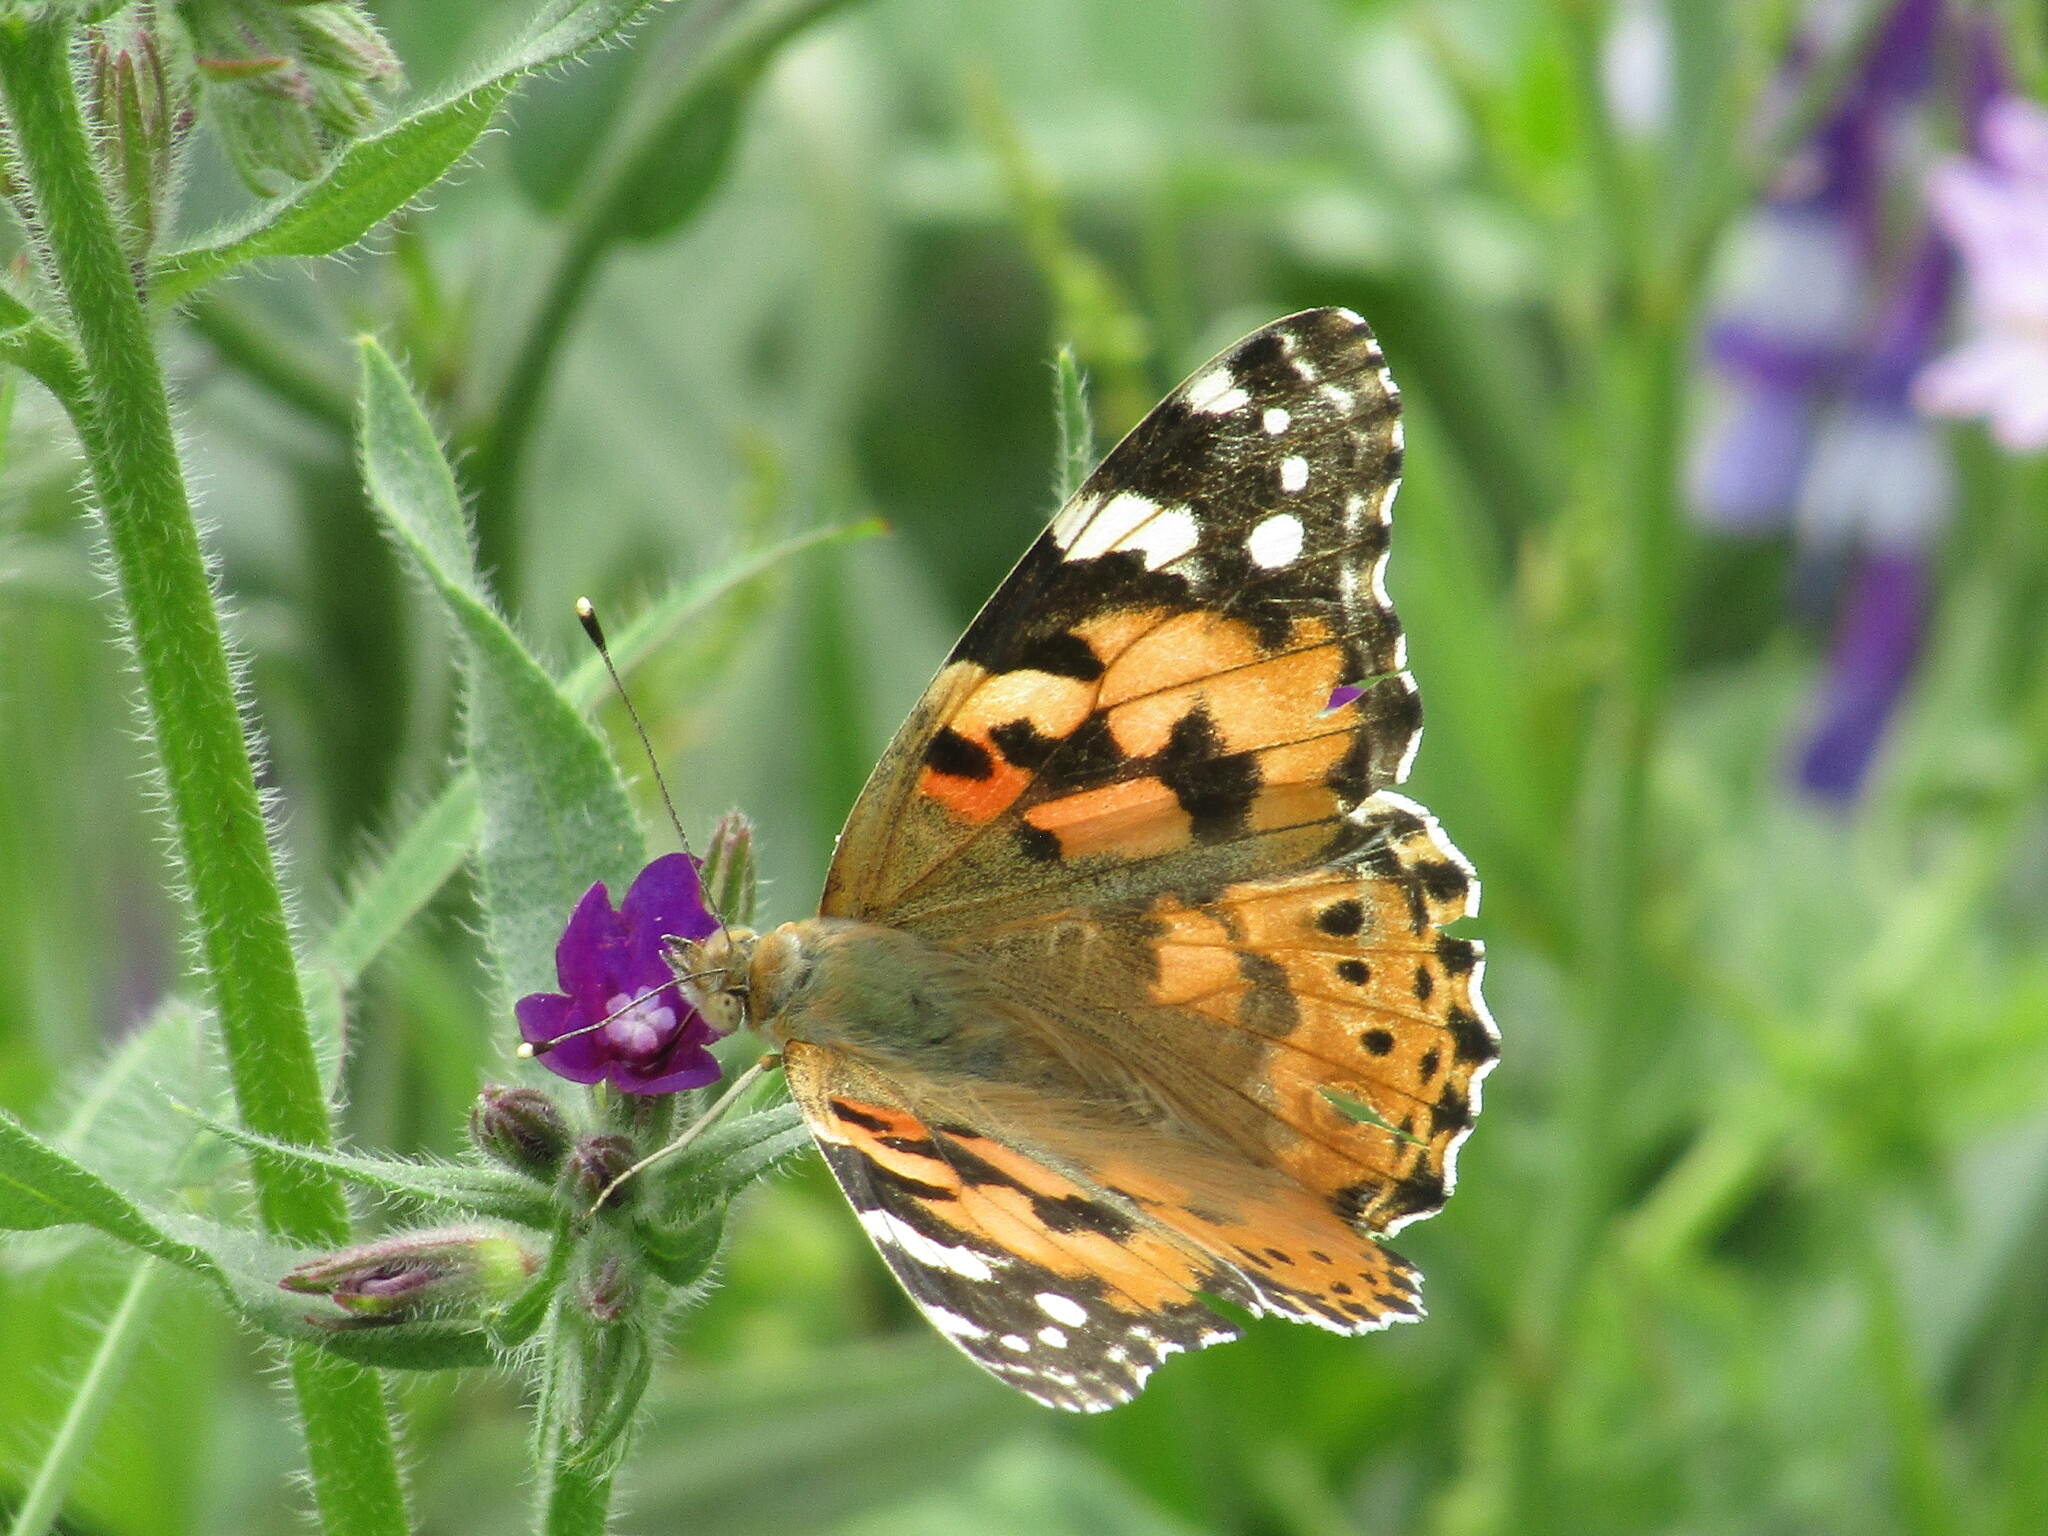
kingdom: Animalia
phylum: Arthropoda
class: Insecta
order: Lepidoptera
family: Nymphalidae
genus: Vanessa
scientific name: Vanessa cardui
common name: Painted lady
